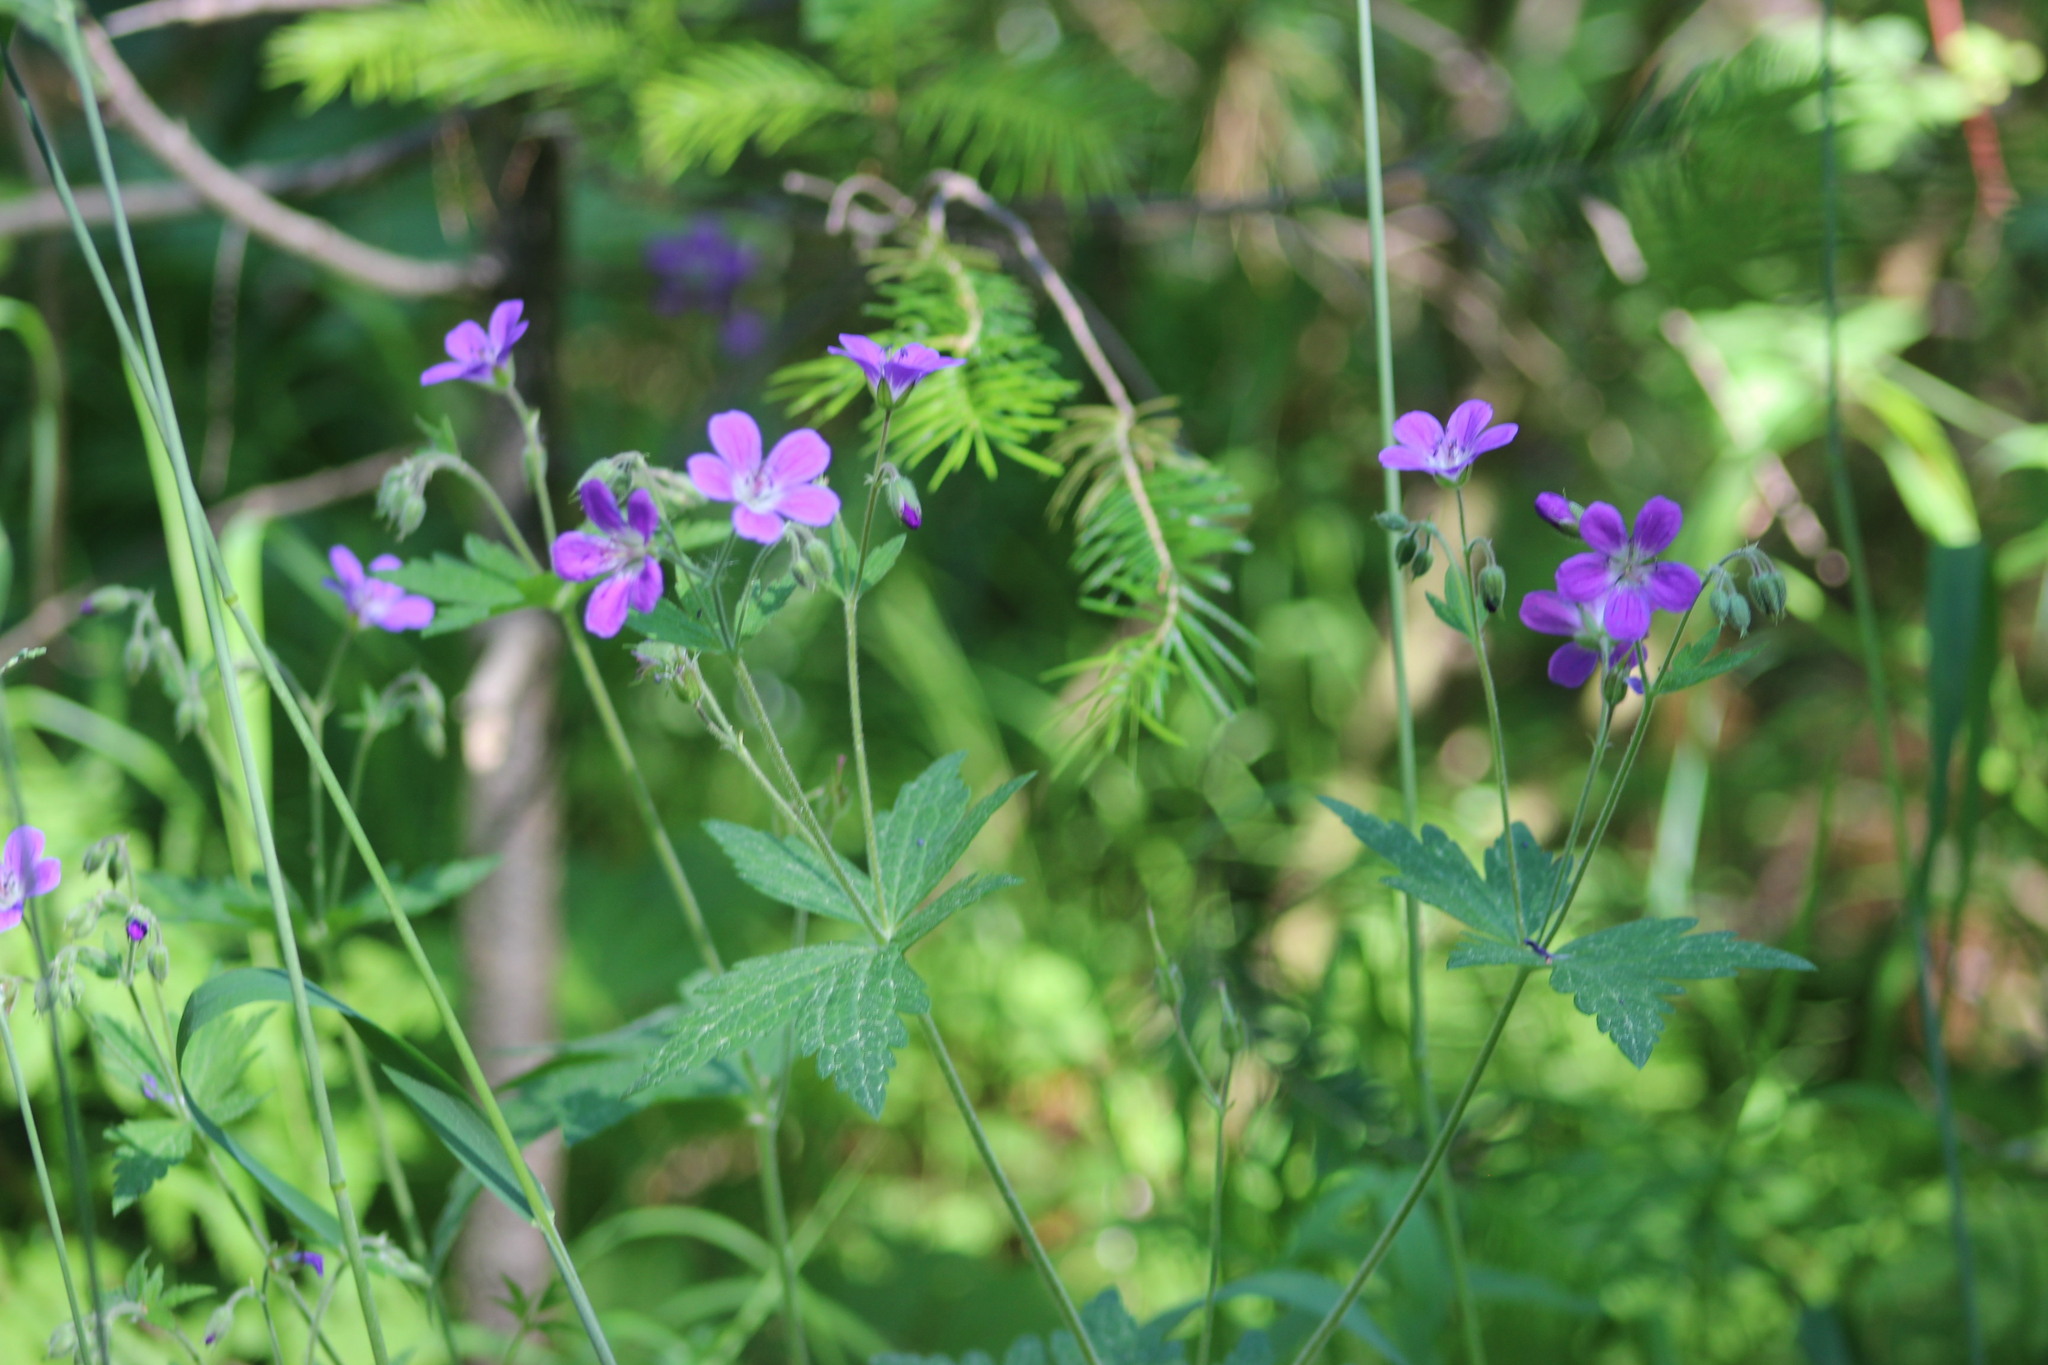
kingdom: Plantae
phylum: Tracheophyta
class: Magnoliopsida
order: Geraniales
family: Geraniaceae
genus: Geranium
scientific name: Geranium sylvaticum
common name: Wood crane's-bill
